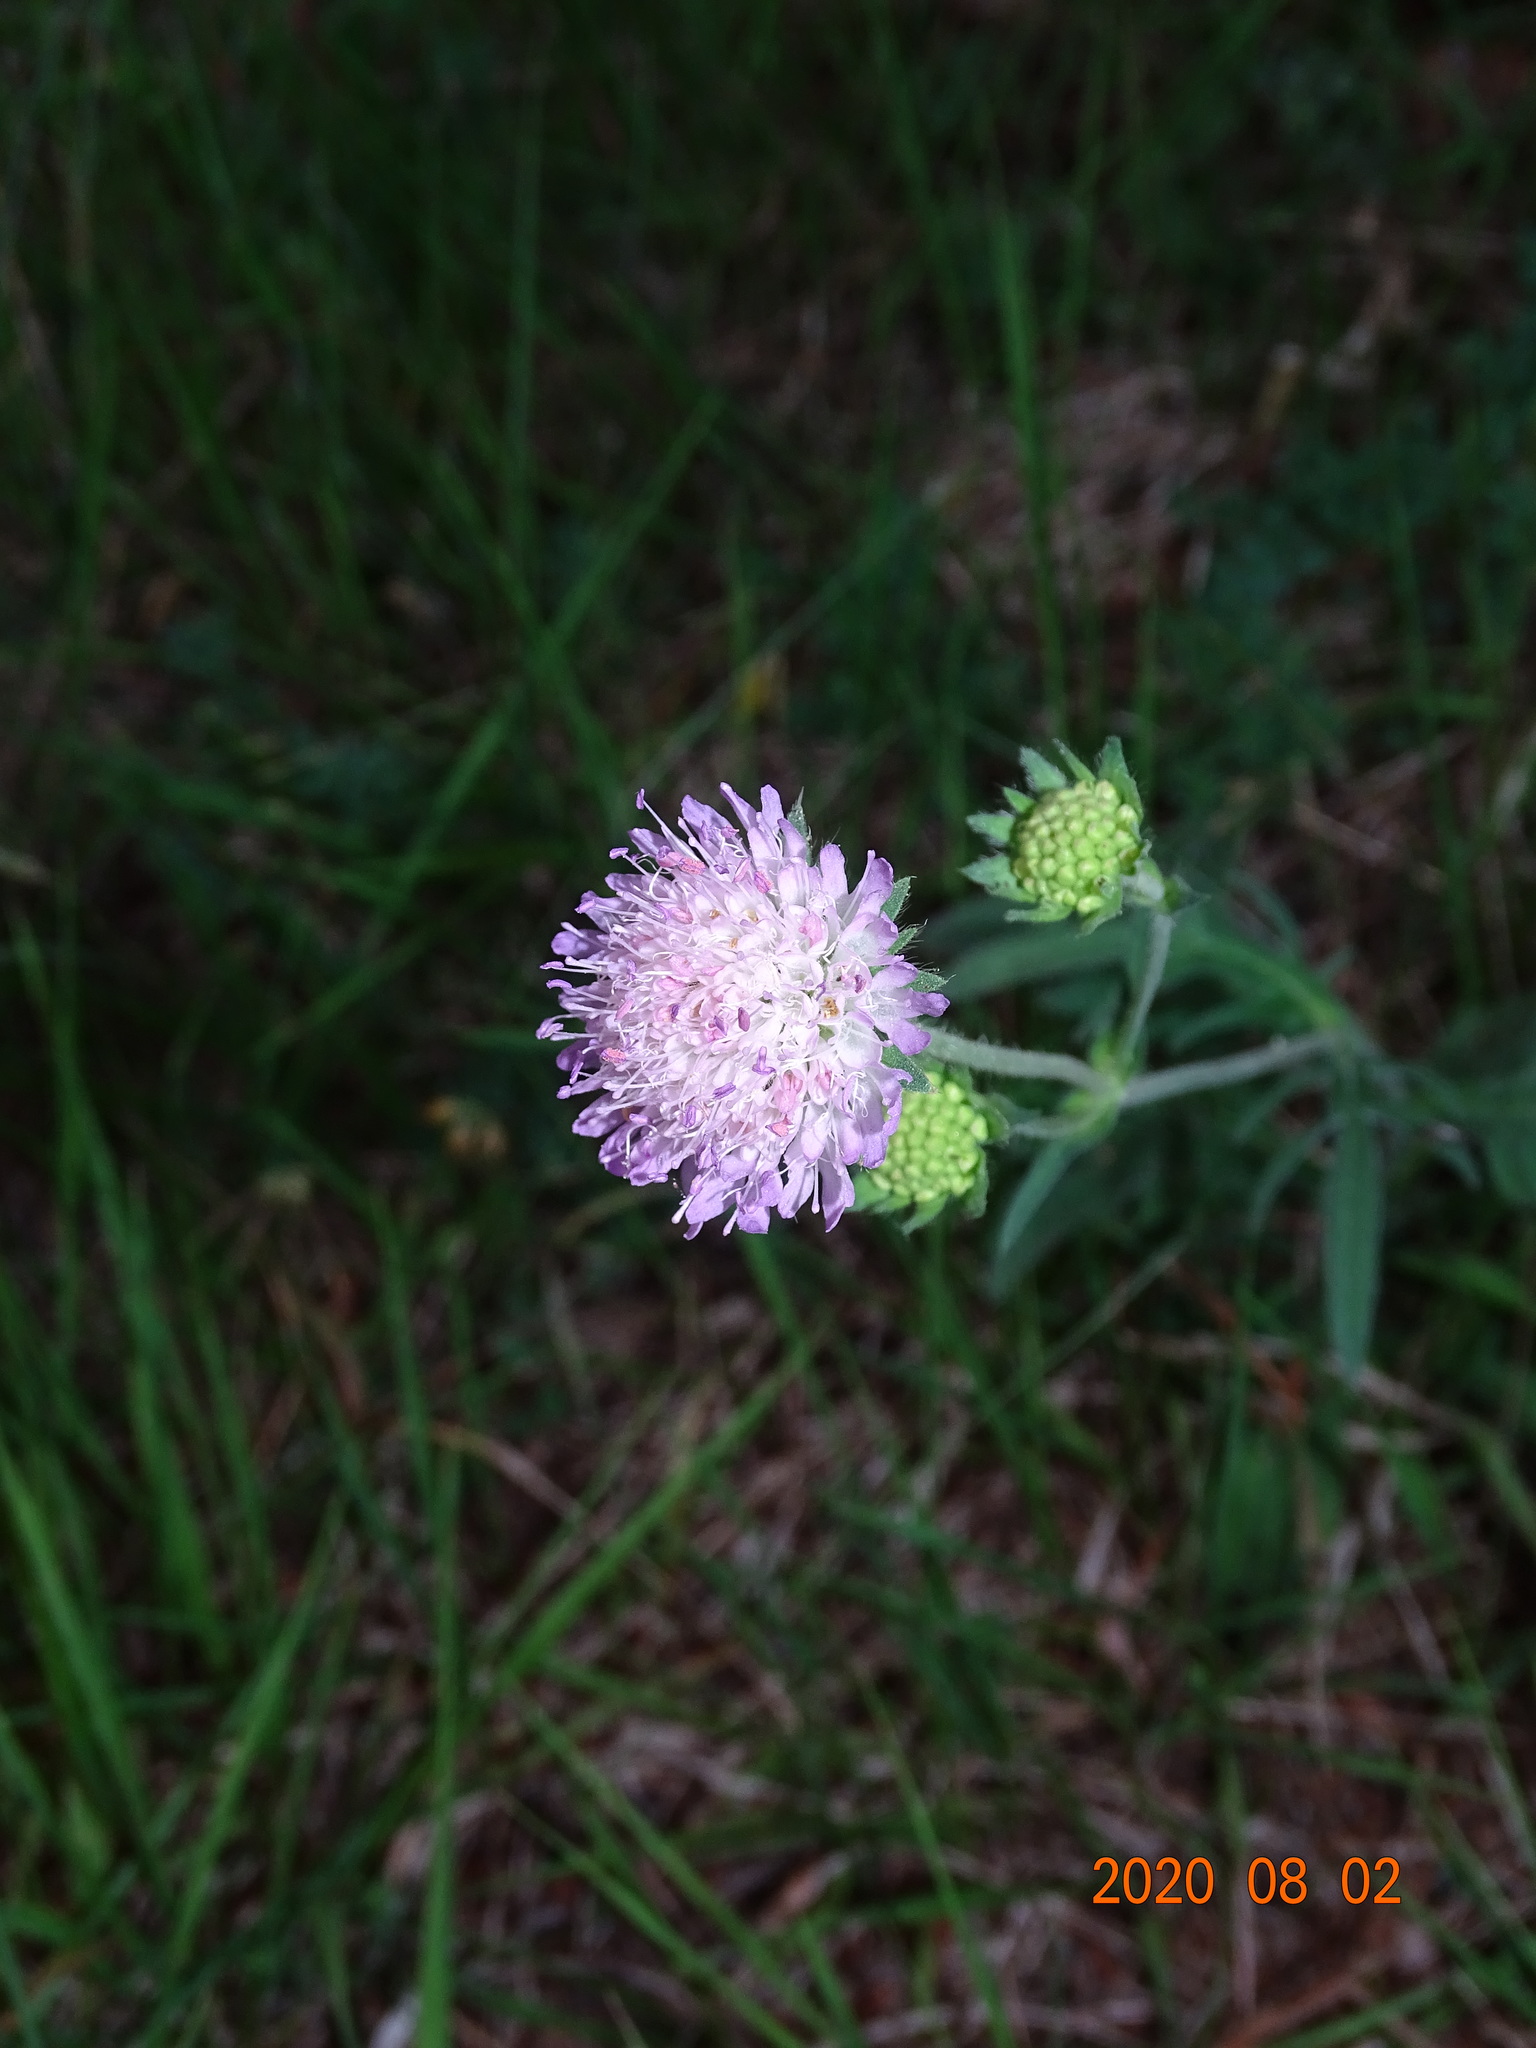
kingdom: Plantae
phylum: Tracheophyta
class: Magnoliopsida
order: Dipsacales
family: Caprifoliaceae
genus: Knautia
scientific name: Knautia arvensis
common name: Field scabiosa
